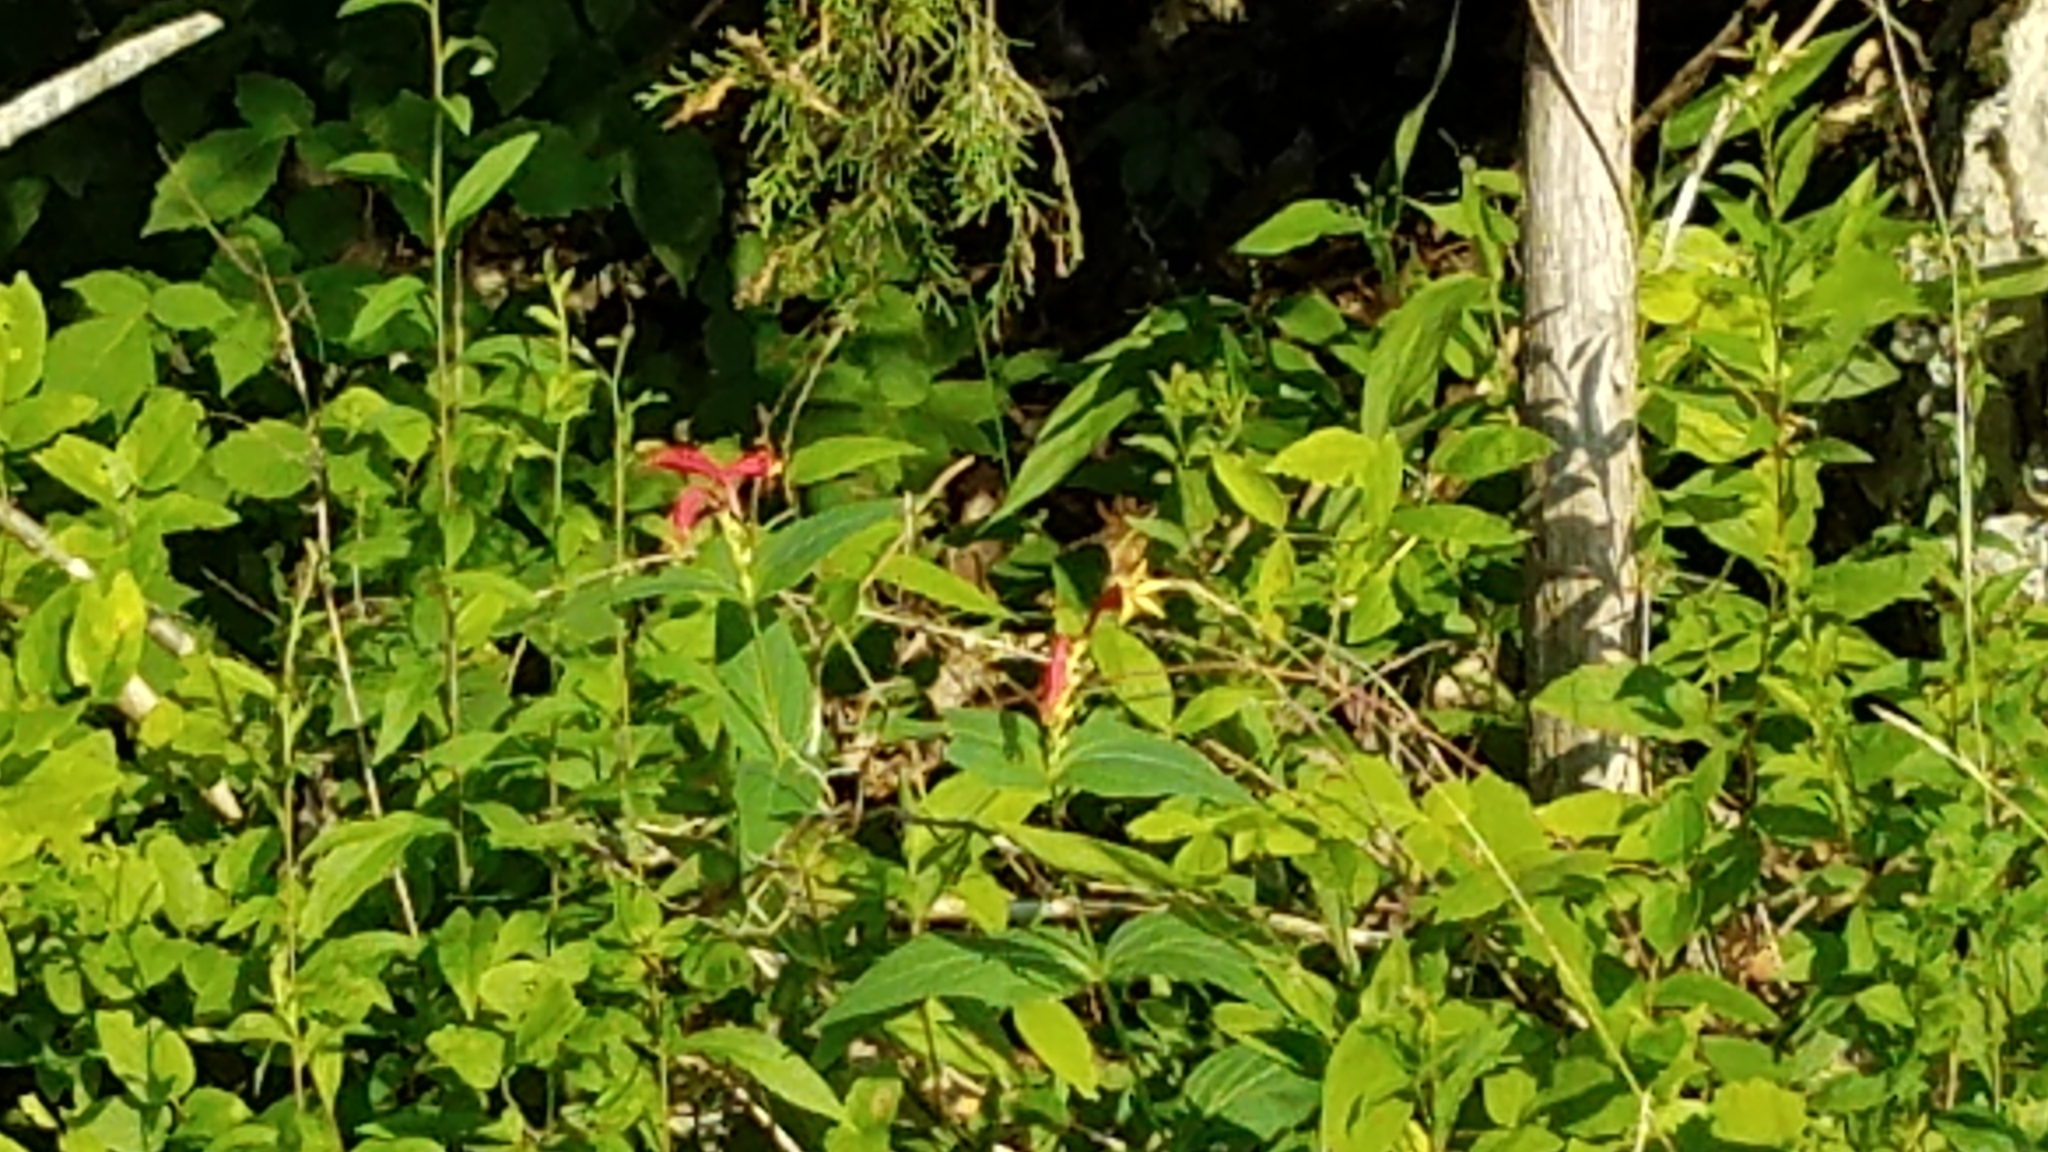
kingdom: Plantae
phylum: Tracheophyta
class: Magnoliopsida
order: Gentianales
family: Loganiaceae
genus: Spigelia
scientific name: Spigelia marilandica
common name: Indian-pink
